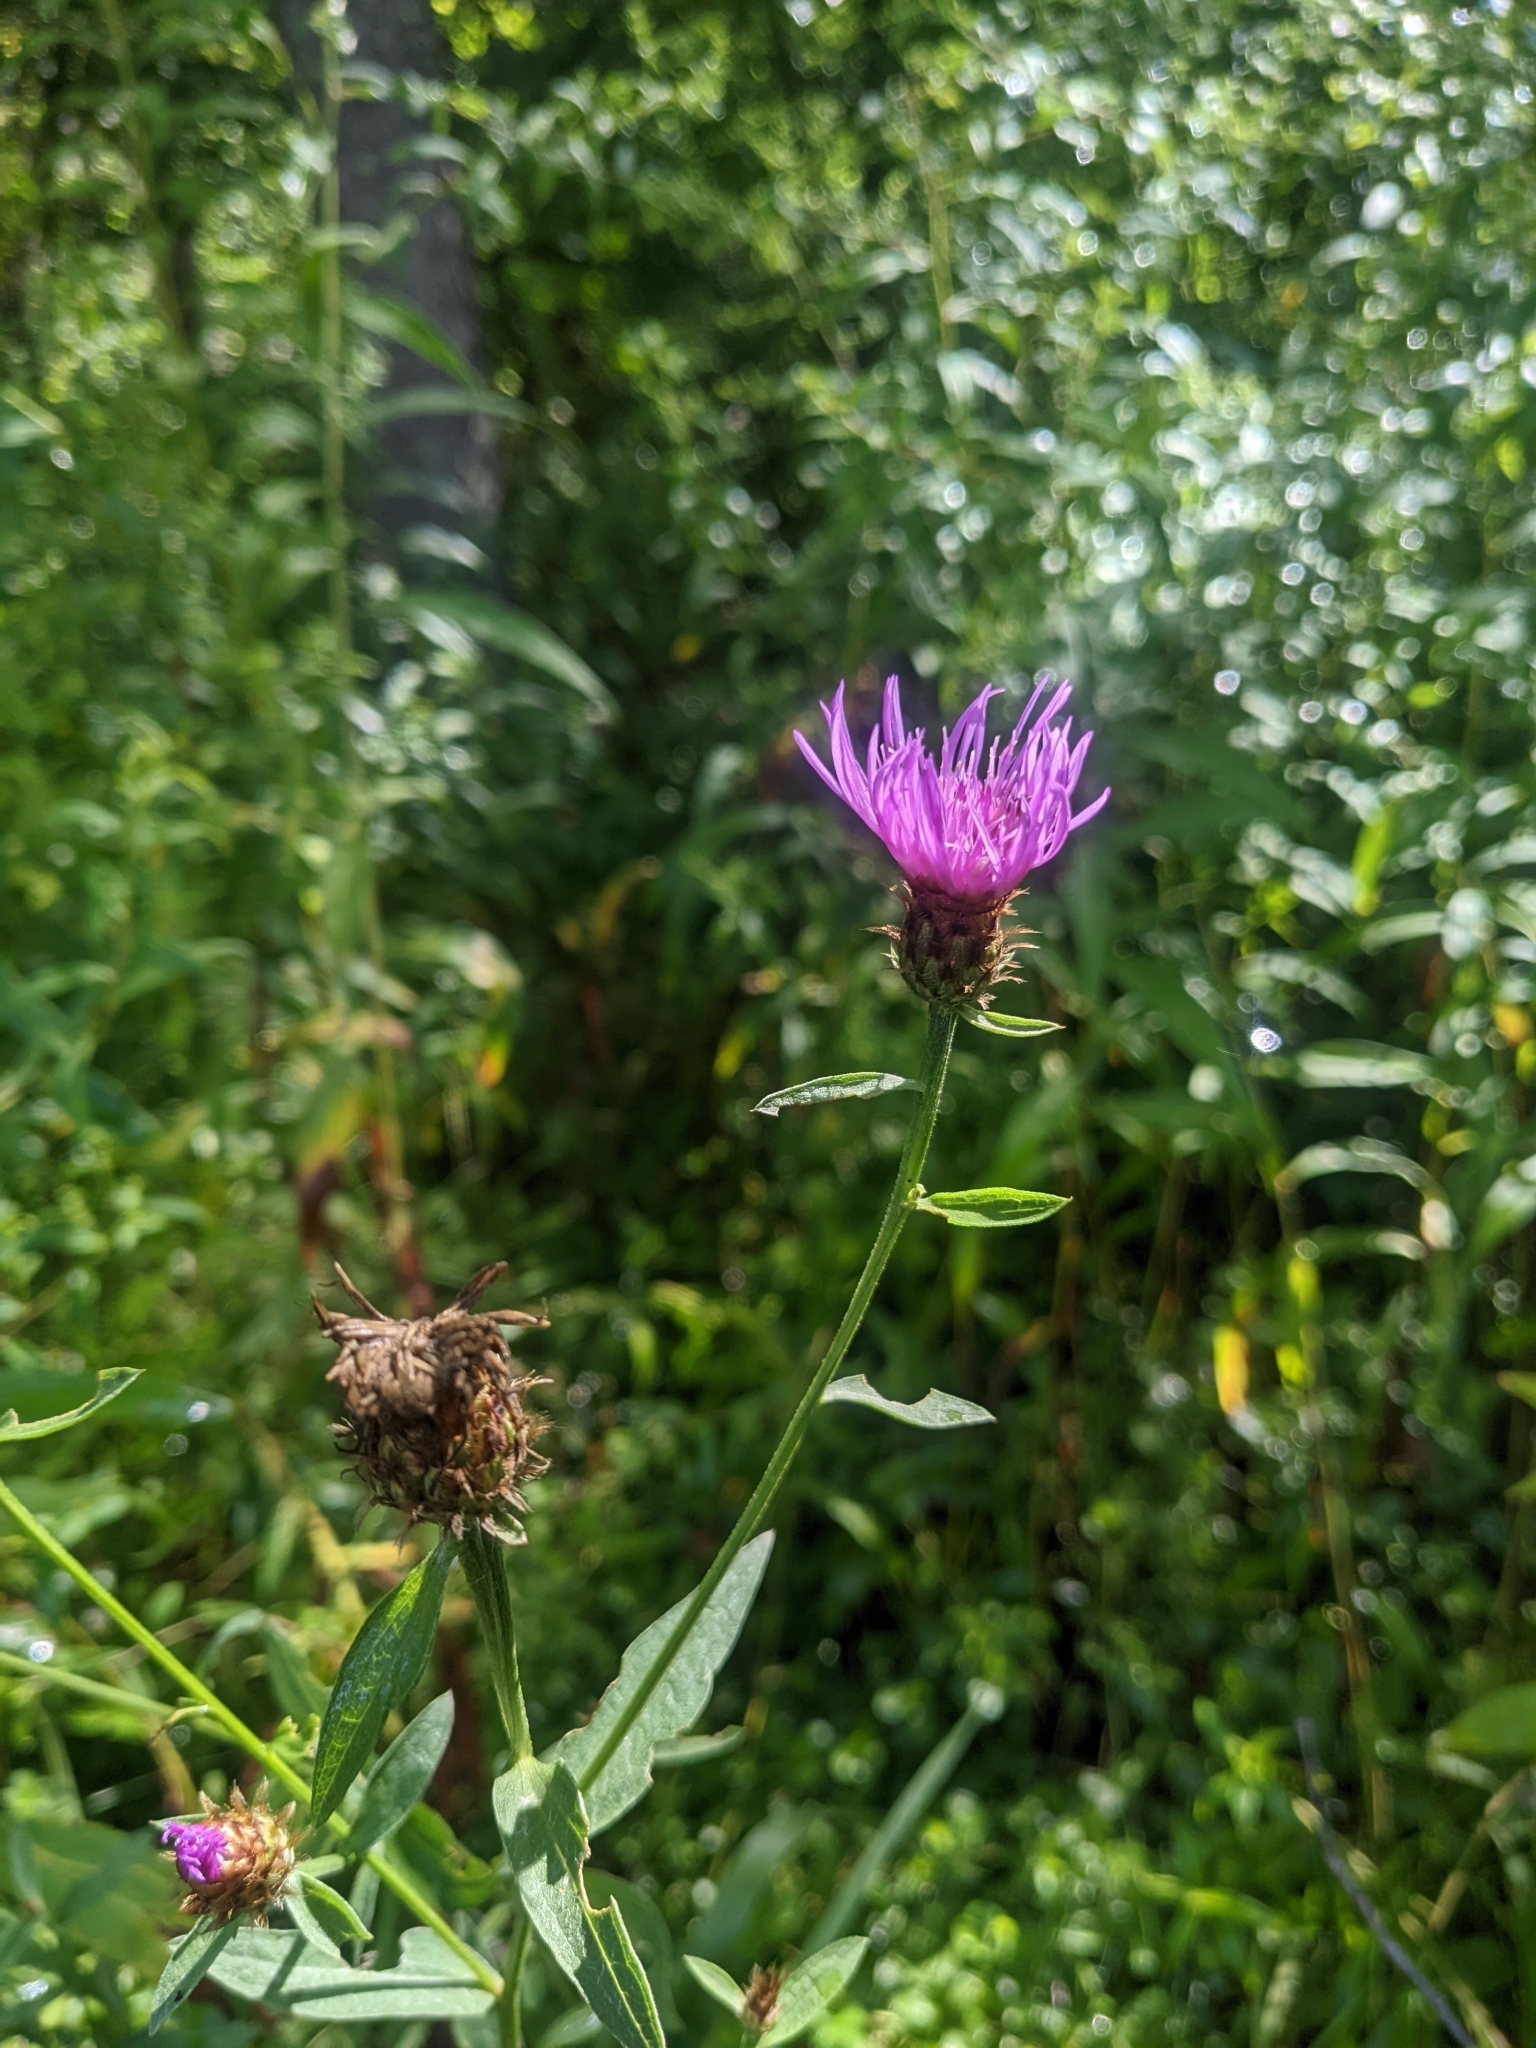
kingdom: Plantae
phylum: Tracheophyta
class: Magnoliopsida
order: Asterales
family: Asteraceae
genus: Centaurea
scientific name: Centaurea stoebe
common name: Spotted knapweed
